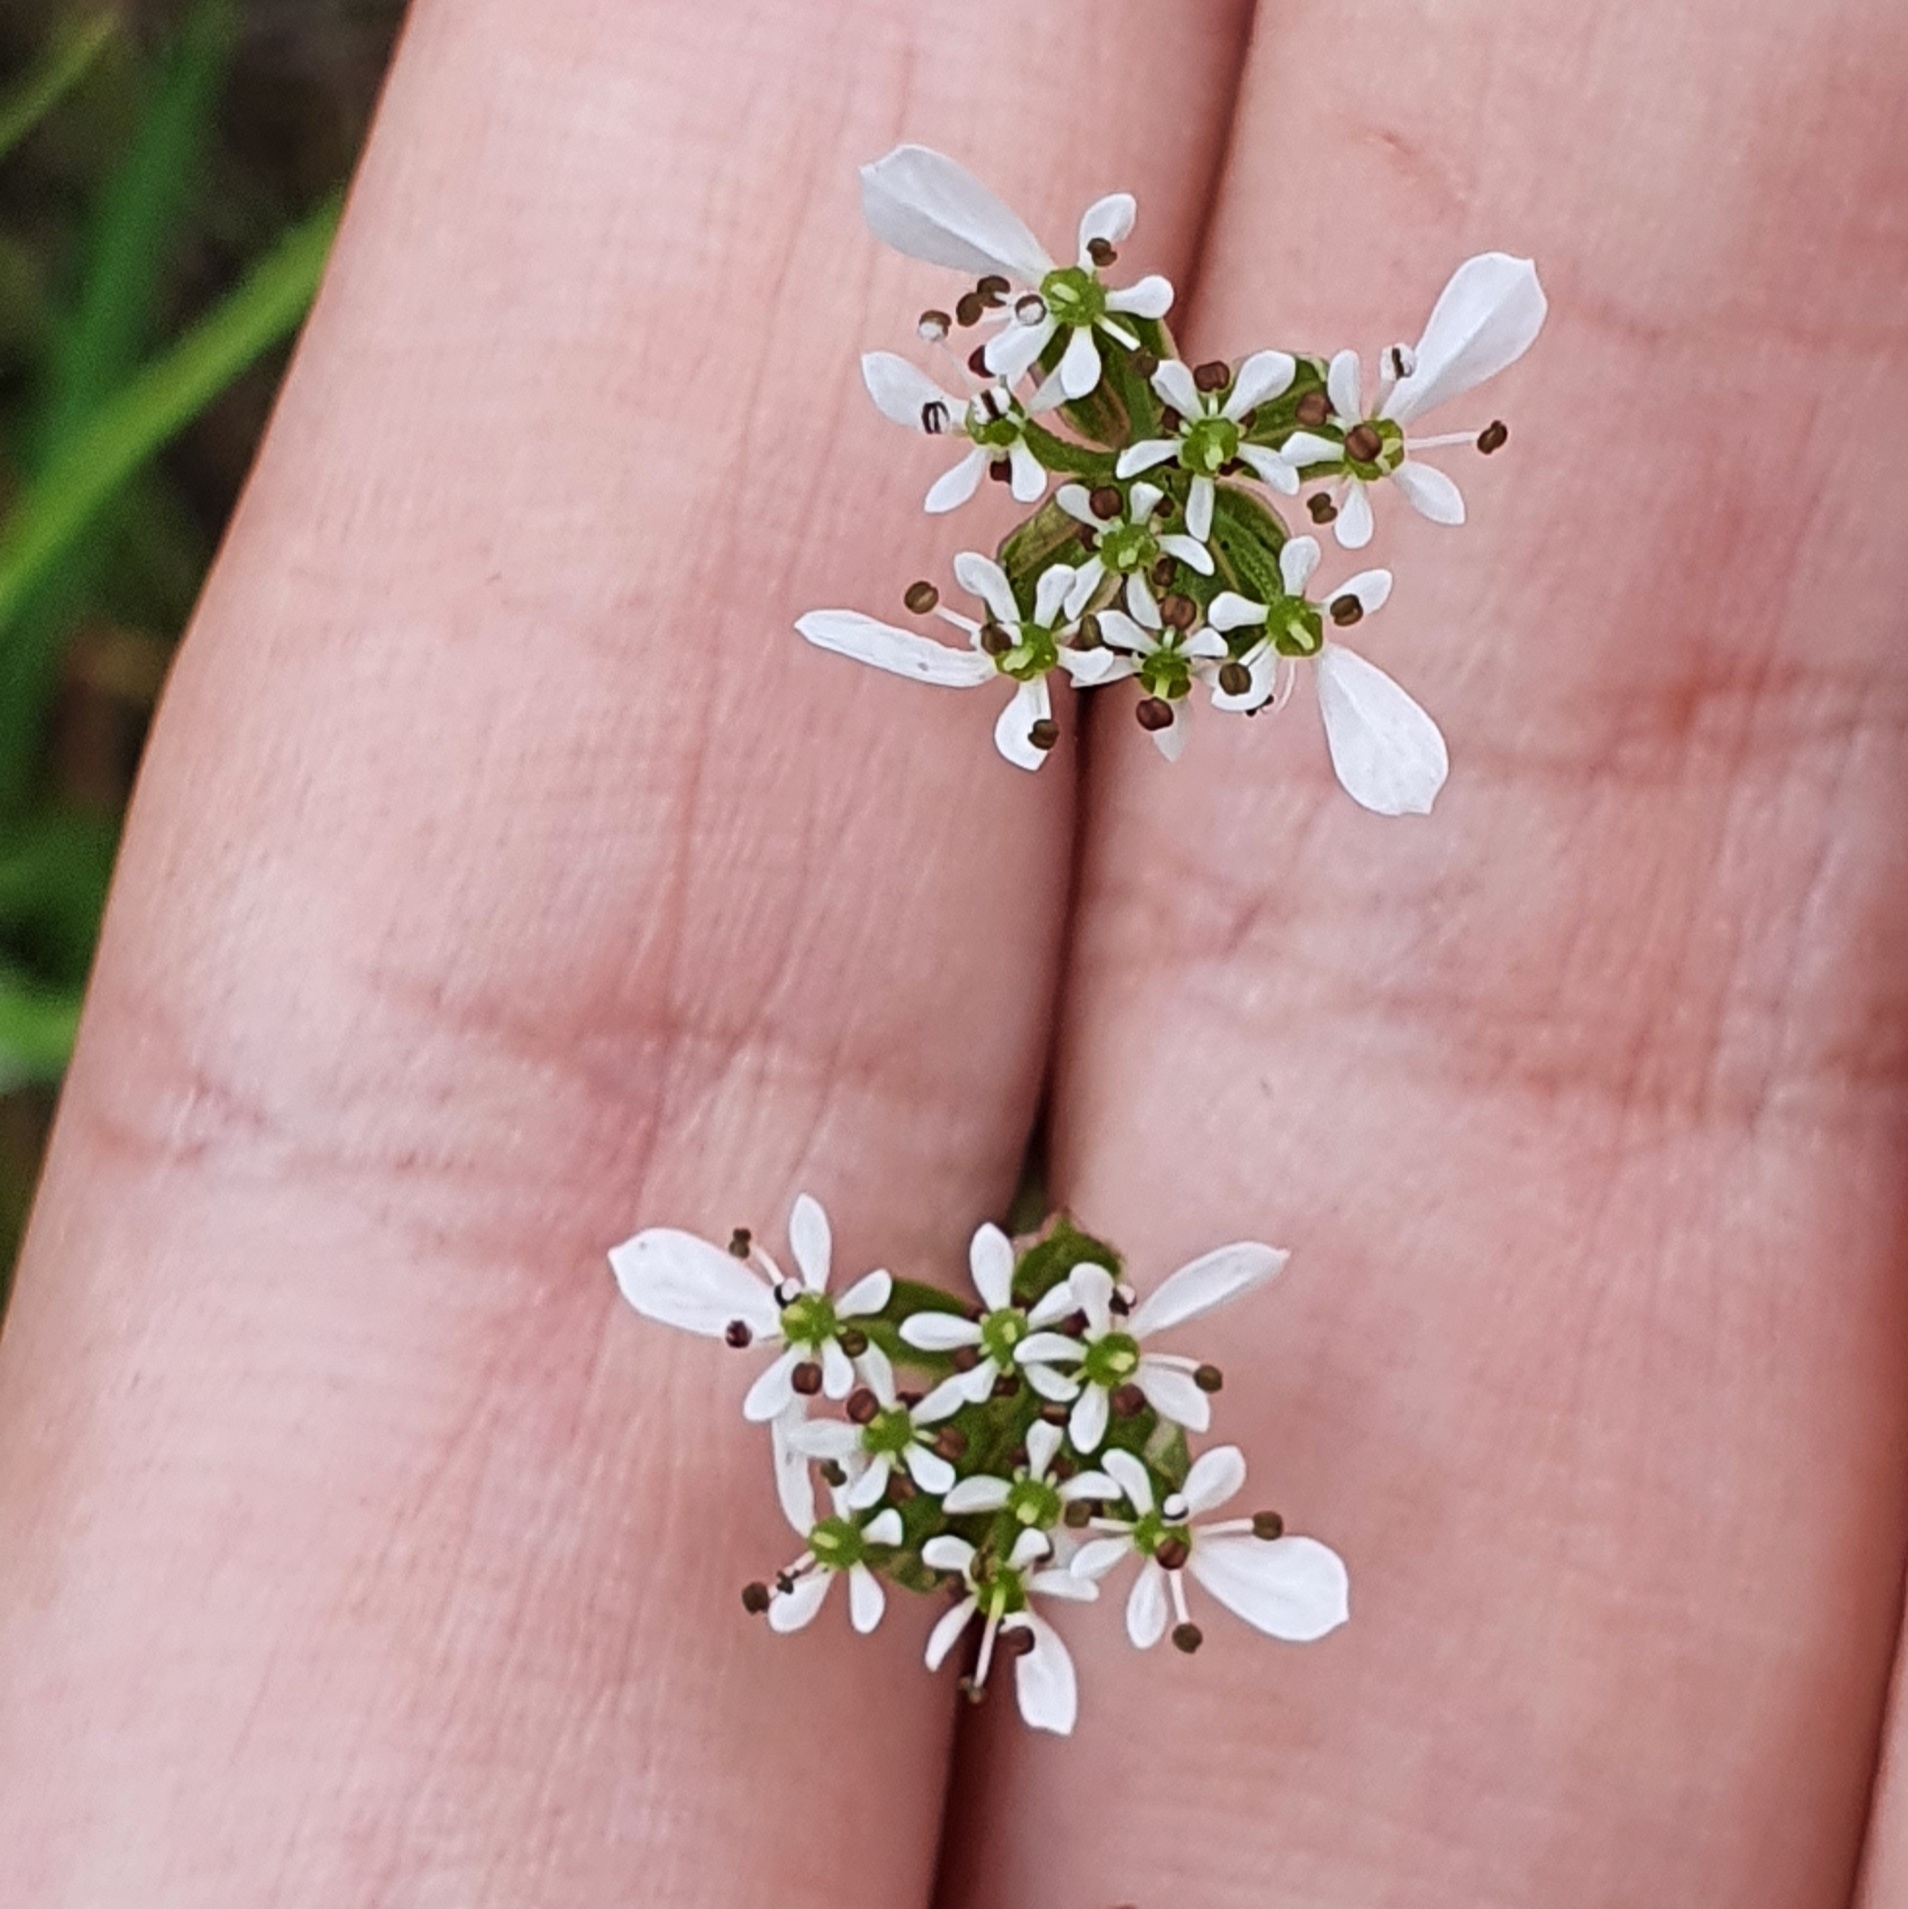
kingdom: Plantae
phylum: Tracheophyta
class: Magnoliopsida
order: Apiales
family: Apiaceae
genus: Scandix
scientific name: Scandix pecten-veneris
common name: Shepherd's-needle
